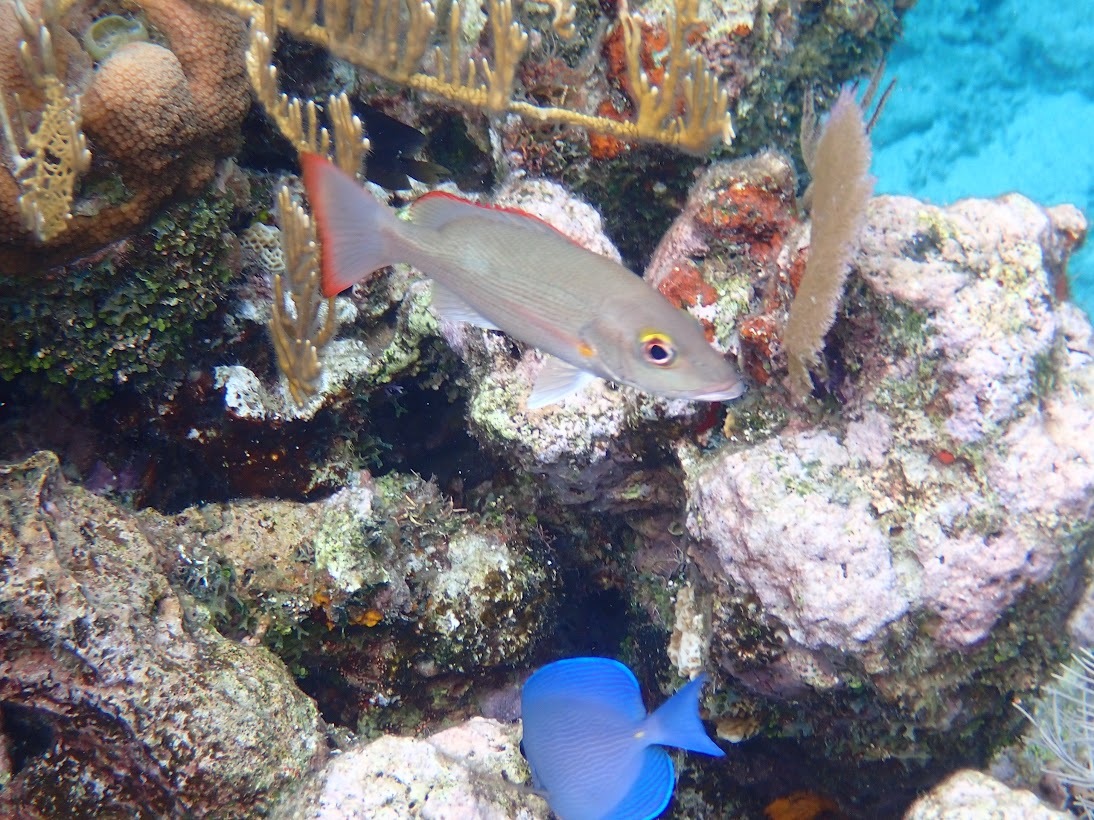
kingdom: Animalia
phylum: Chordata
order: Perciformes
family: Lutjanidae
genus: Lutjanus
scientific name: Lutjanus mahogoni
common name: Spot snapper
